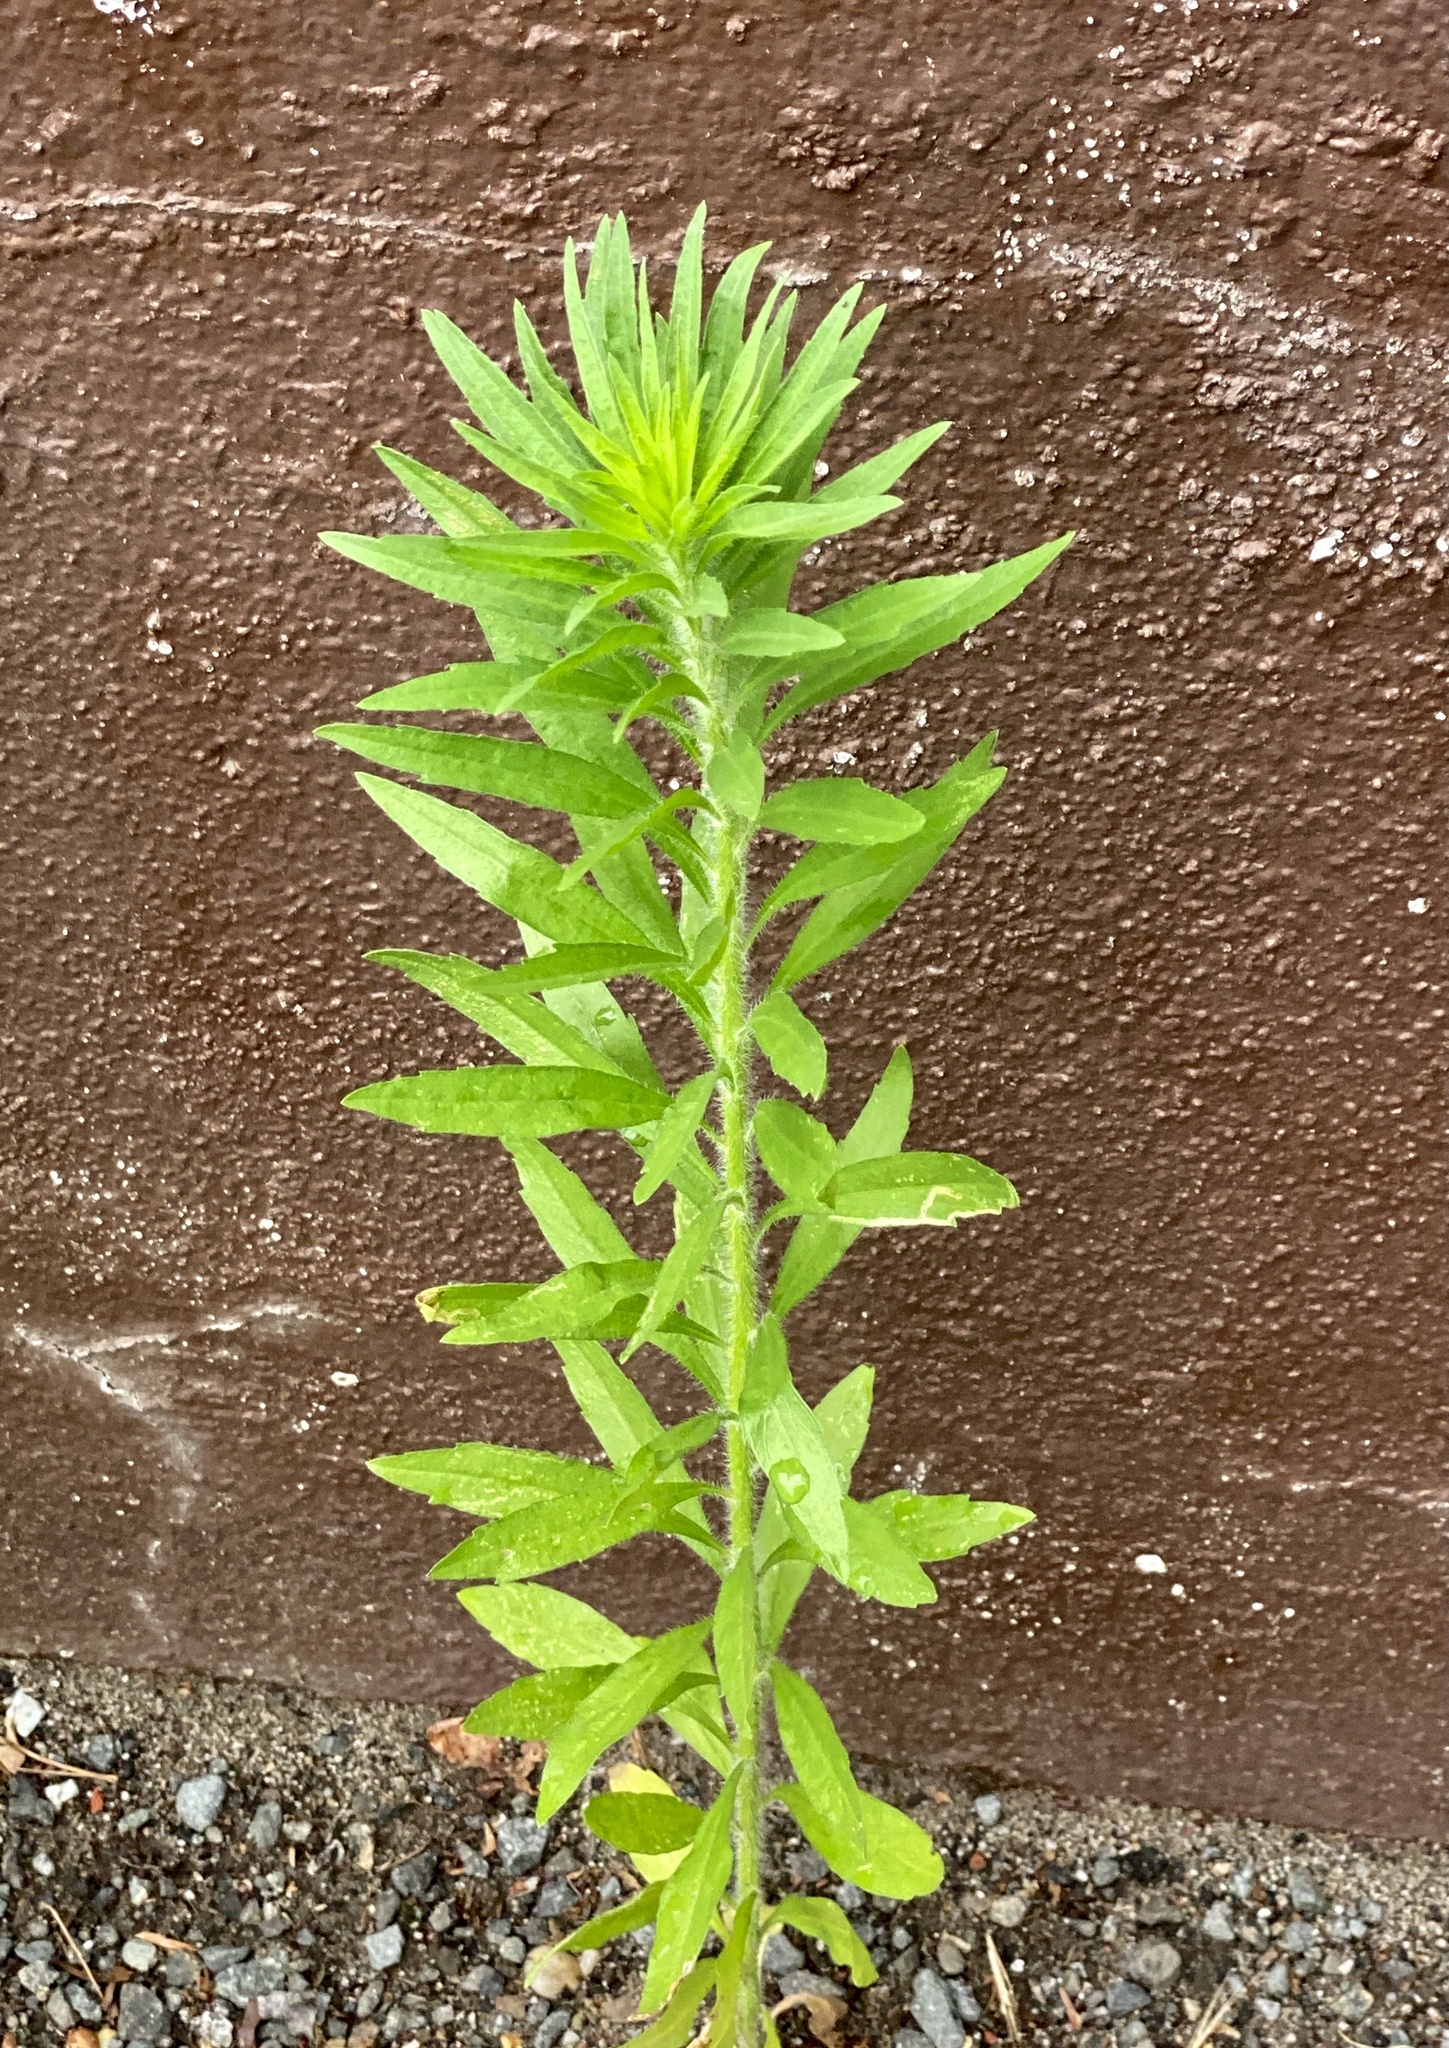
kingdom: Plantae
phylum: Tracheophyta
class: Magnoliopsida
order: Asterales
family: Asteraceae
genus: Erigeron
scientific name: Erigeron canadensis
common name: Canadian fleabane
